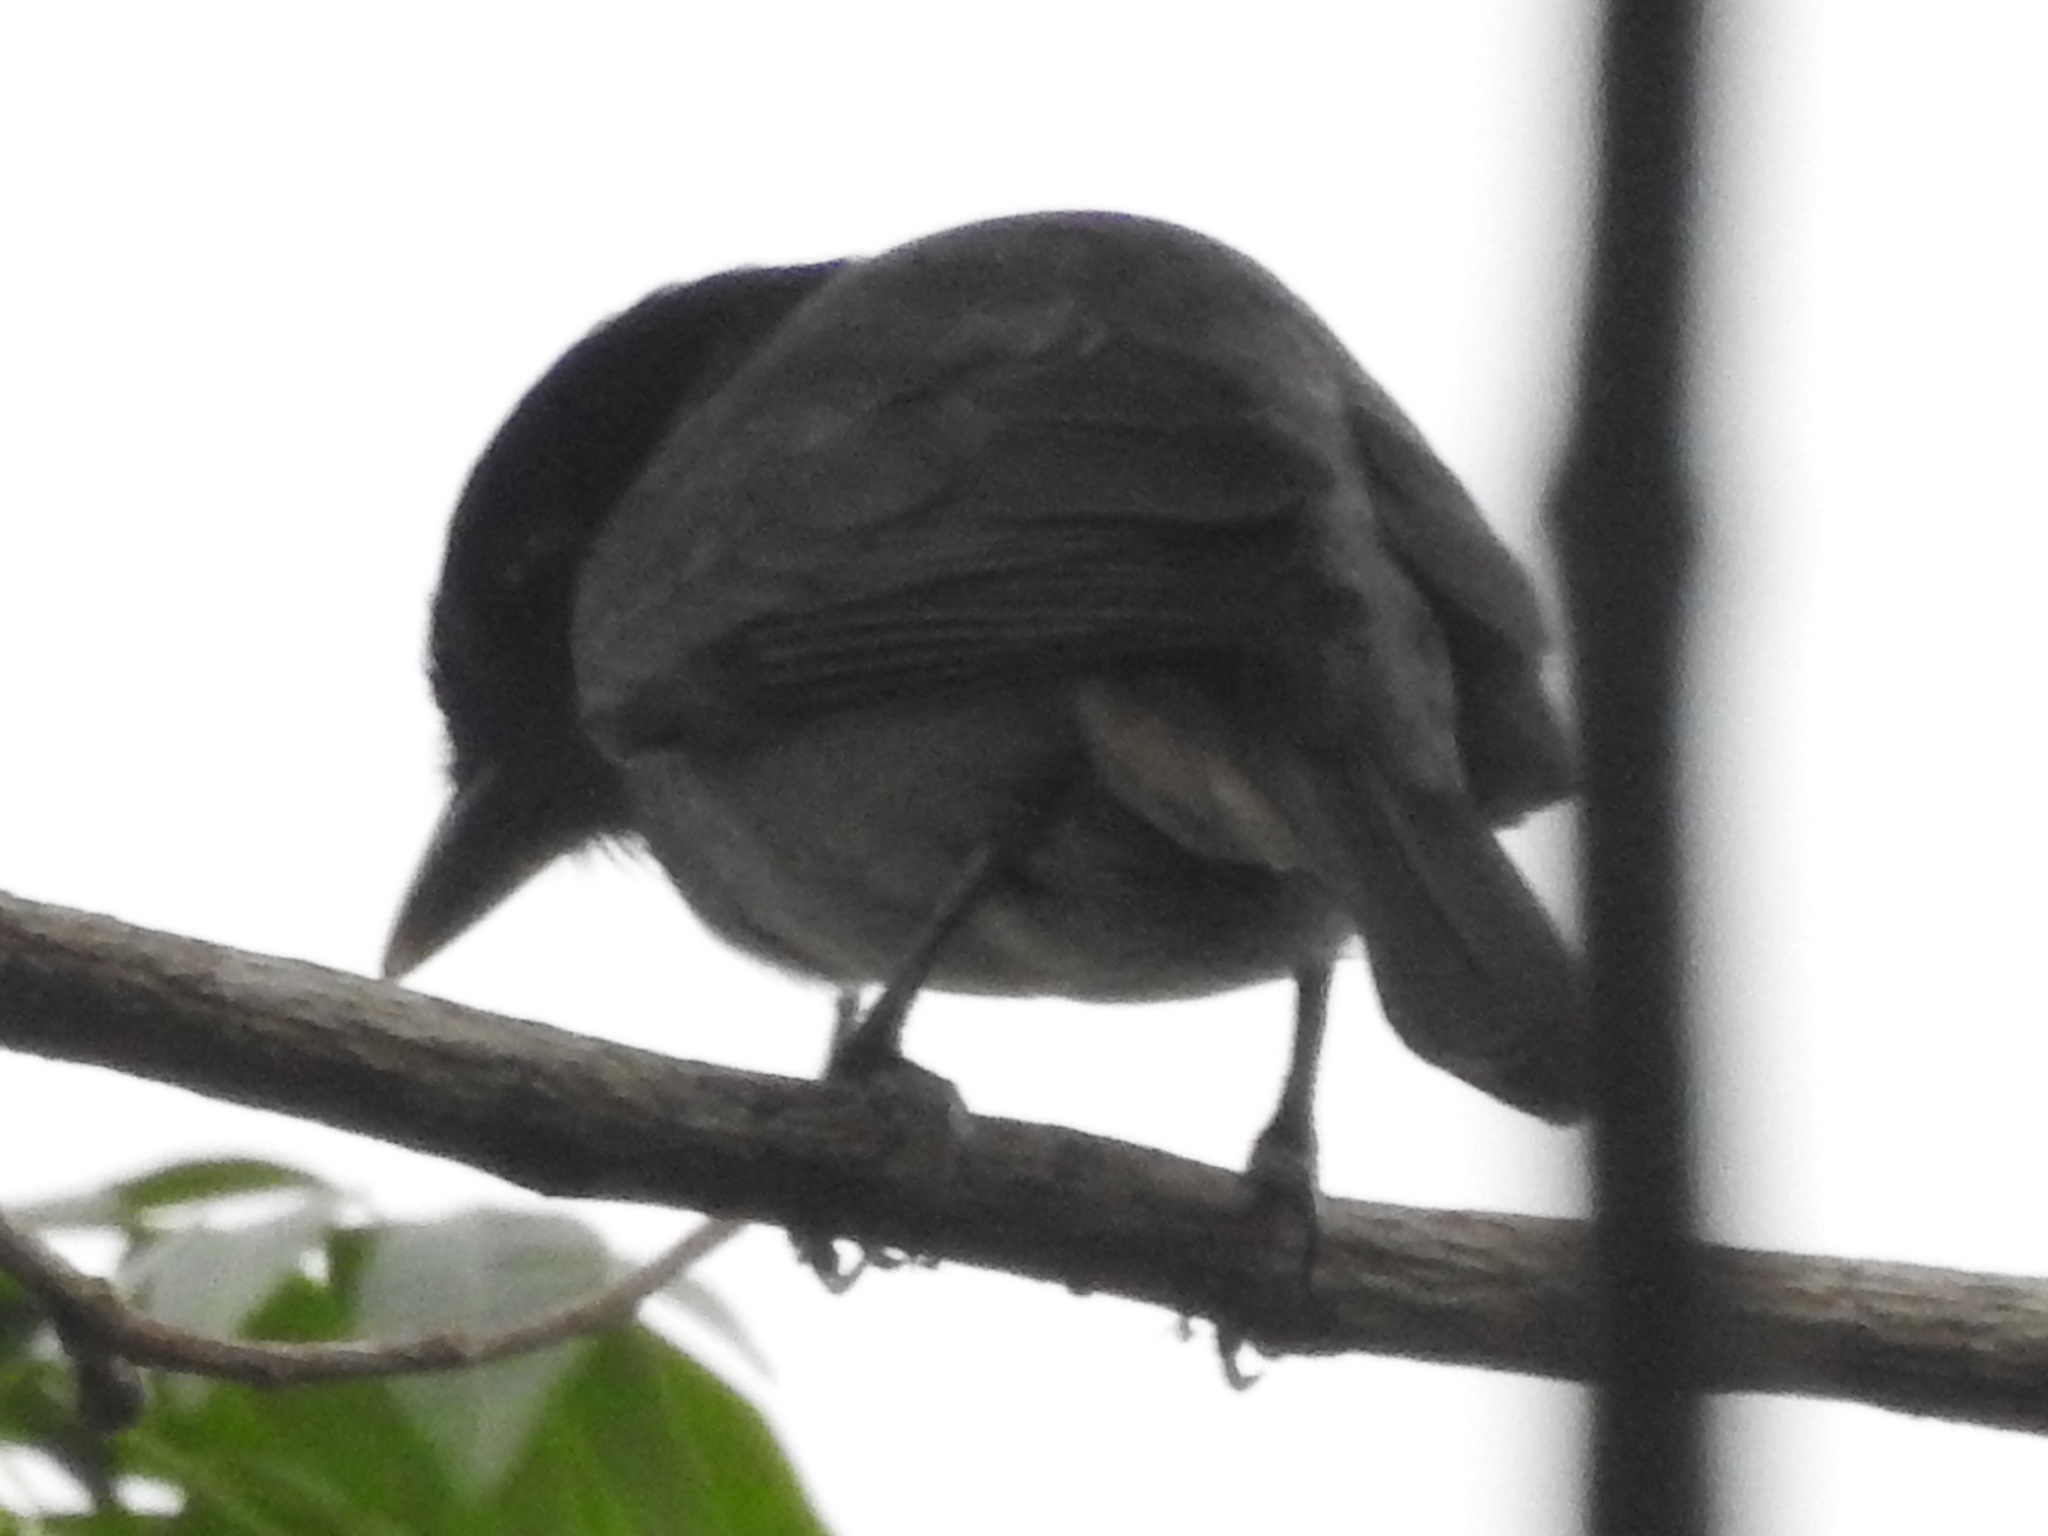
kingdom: Animalia
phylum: Chordata
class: Aves
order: Passeriformes
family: Cotingidae
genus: Pachyramphus
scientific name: Pachyramphus aglaiae
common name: Rose-throated becard
